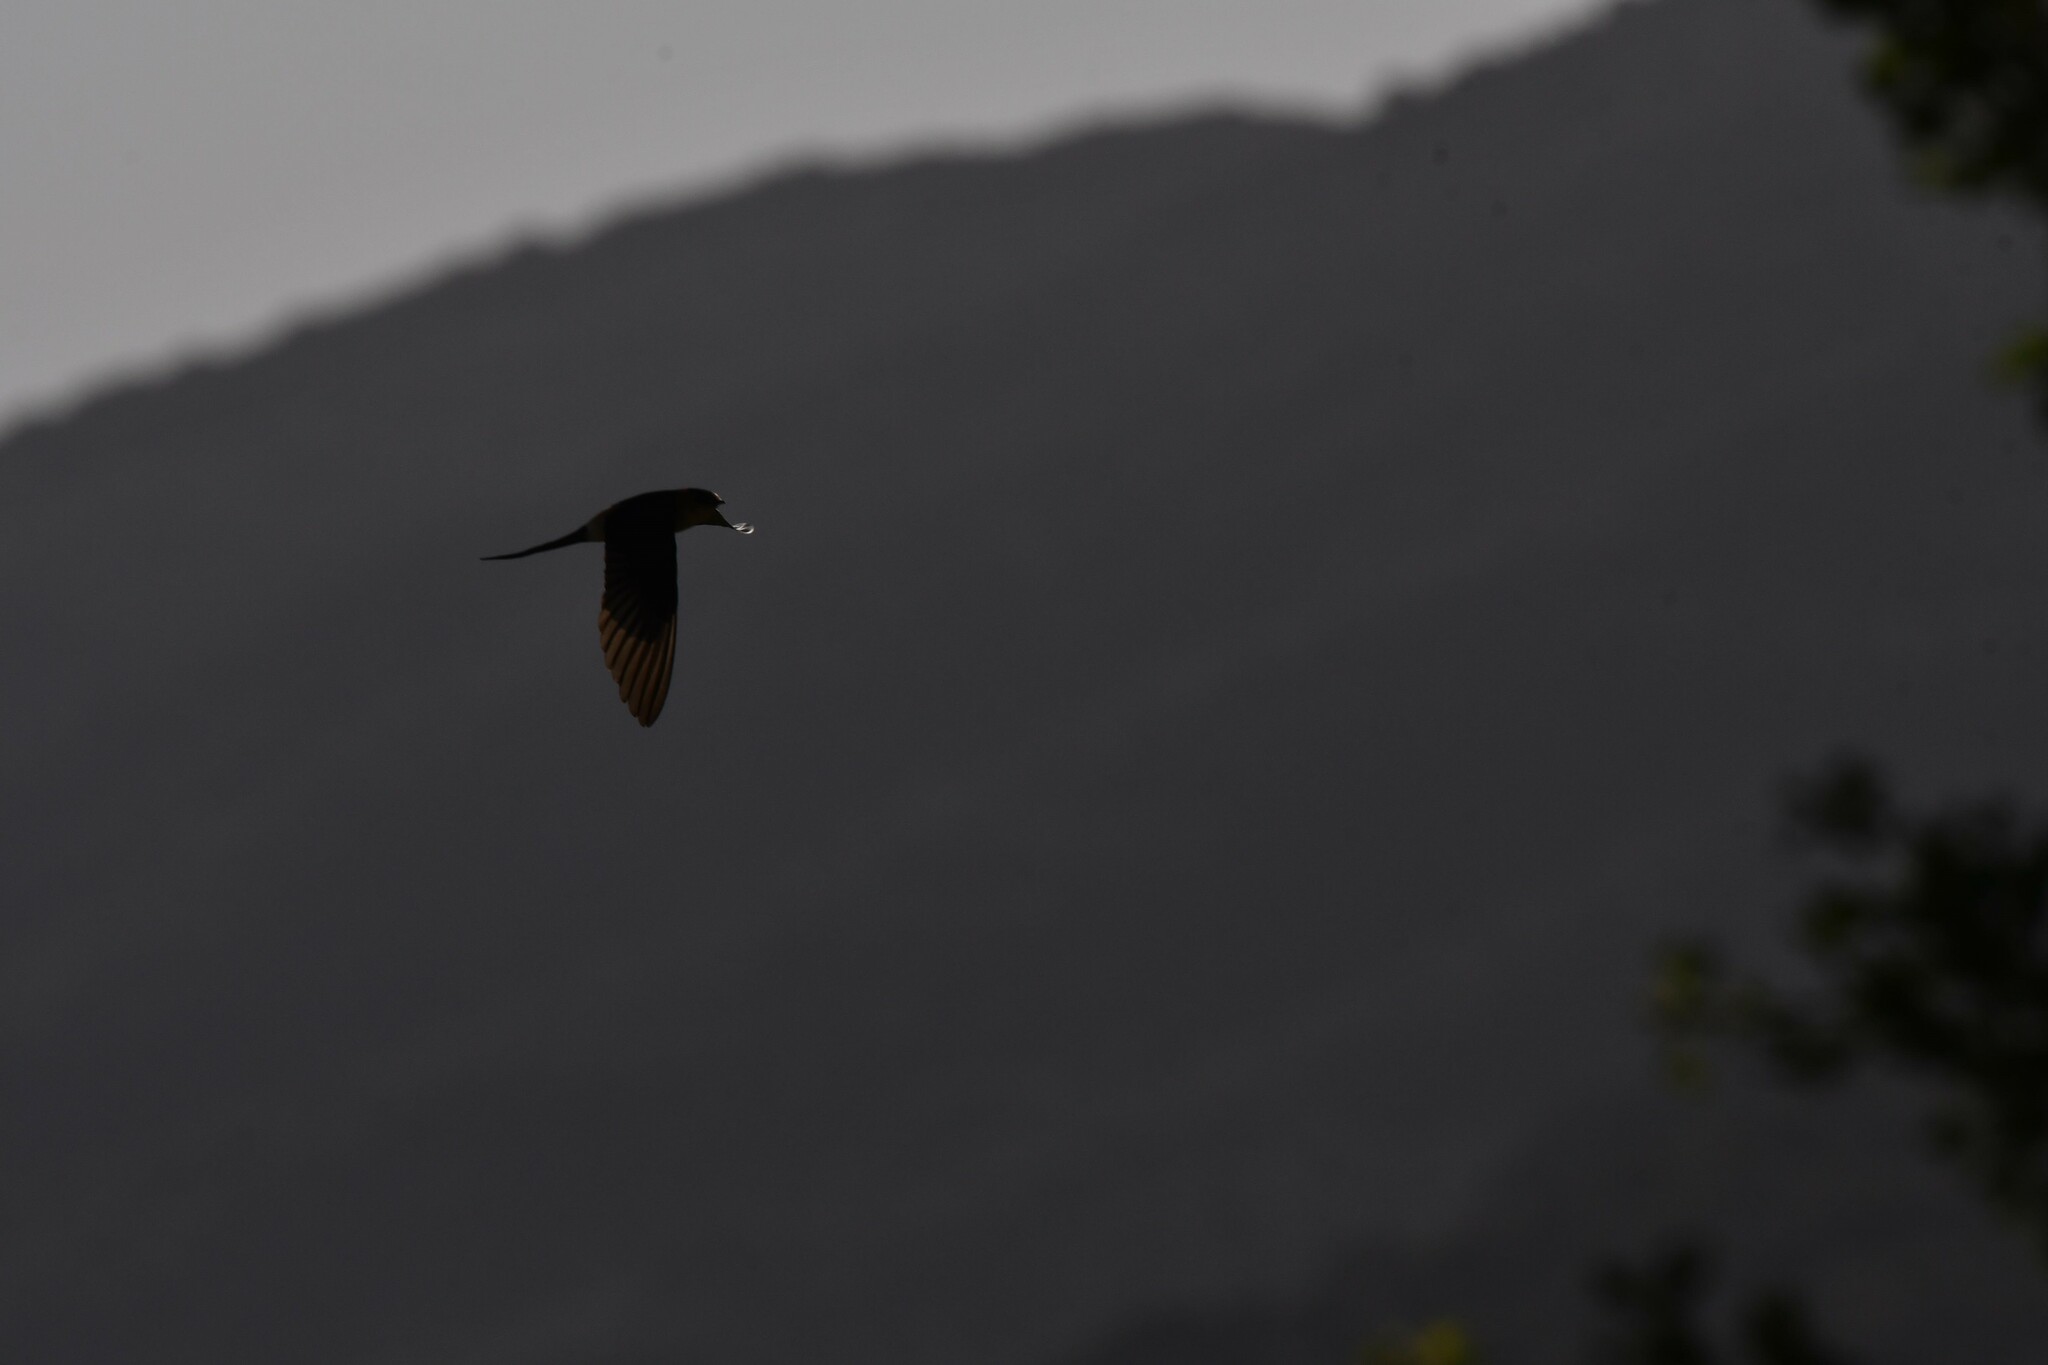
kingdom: Animalia
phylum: Chordata
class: Aves
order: Passeriformes
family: Hirundinidae
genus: Cecropis
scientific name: Cecropis daurica
